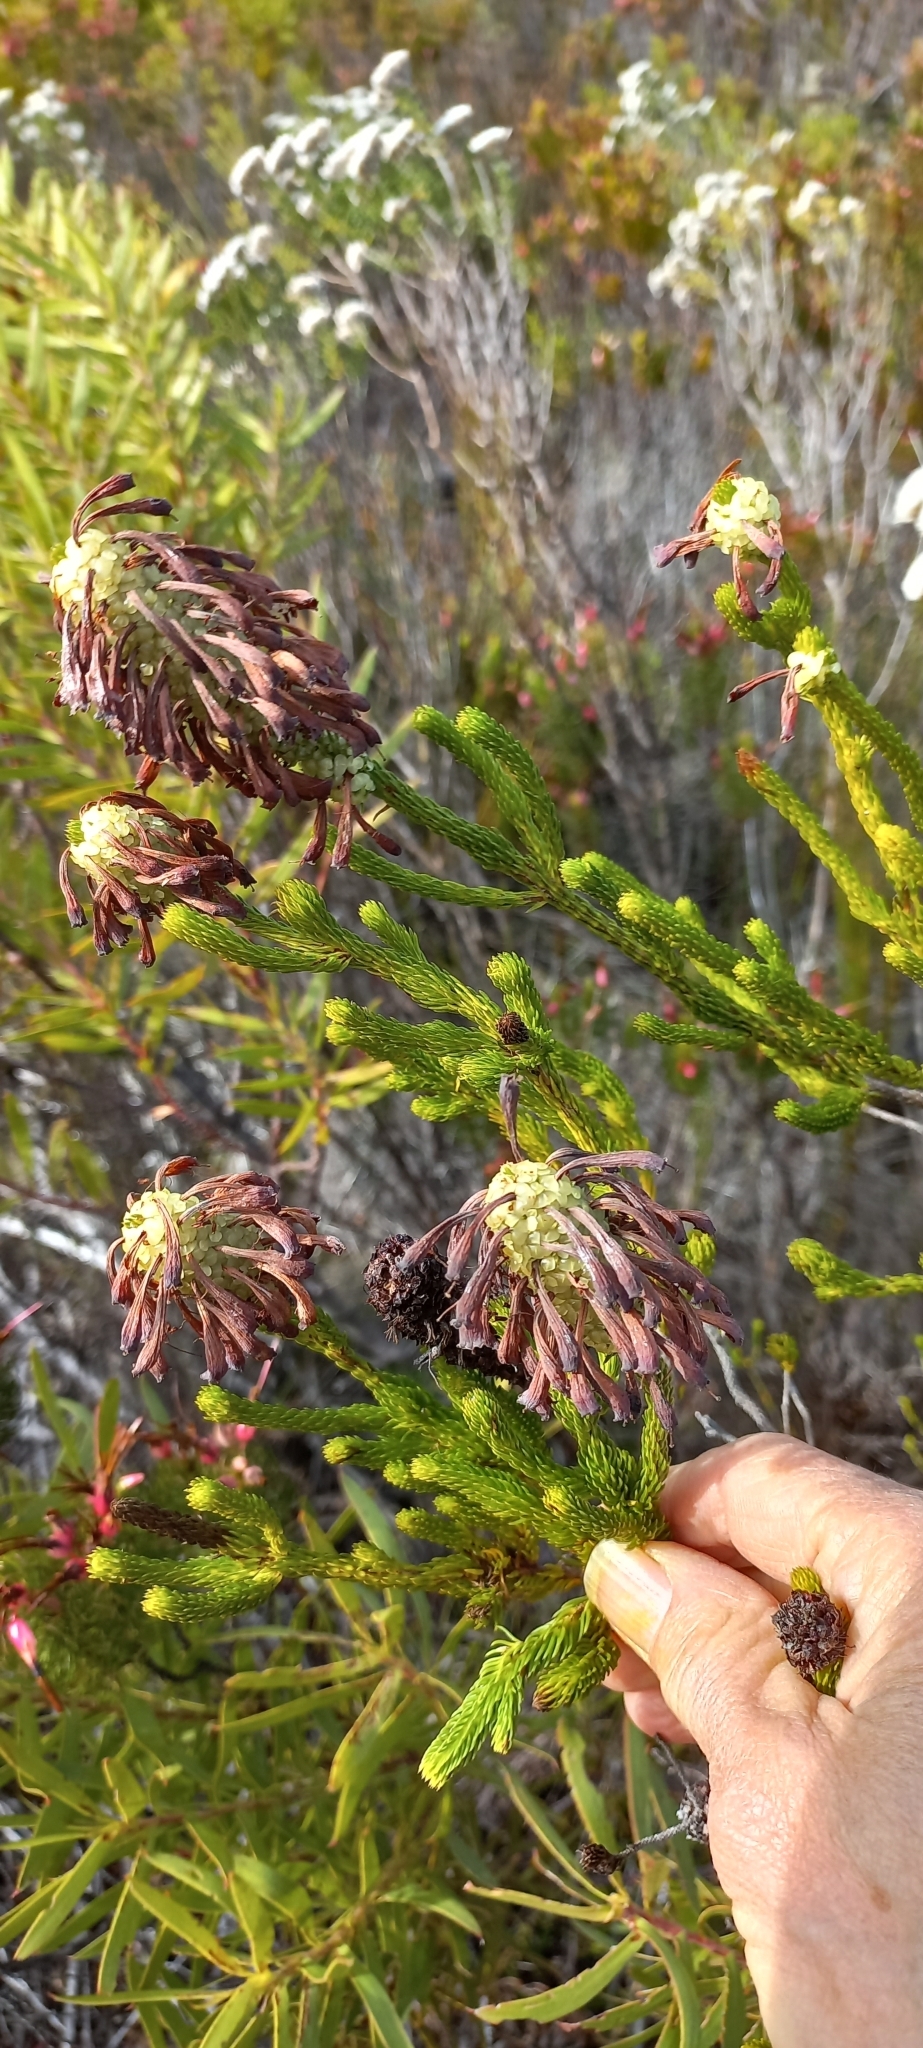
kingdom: Plantae
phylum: Tracheophyta
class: Magnoliopsida
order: Ericales
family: Ericaceae
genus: Erica
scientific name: Erica sessiliflora
